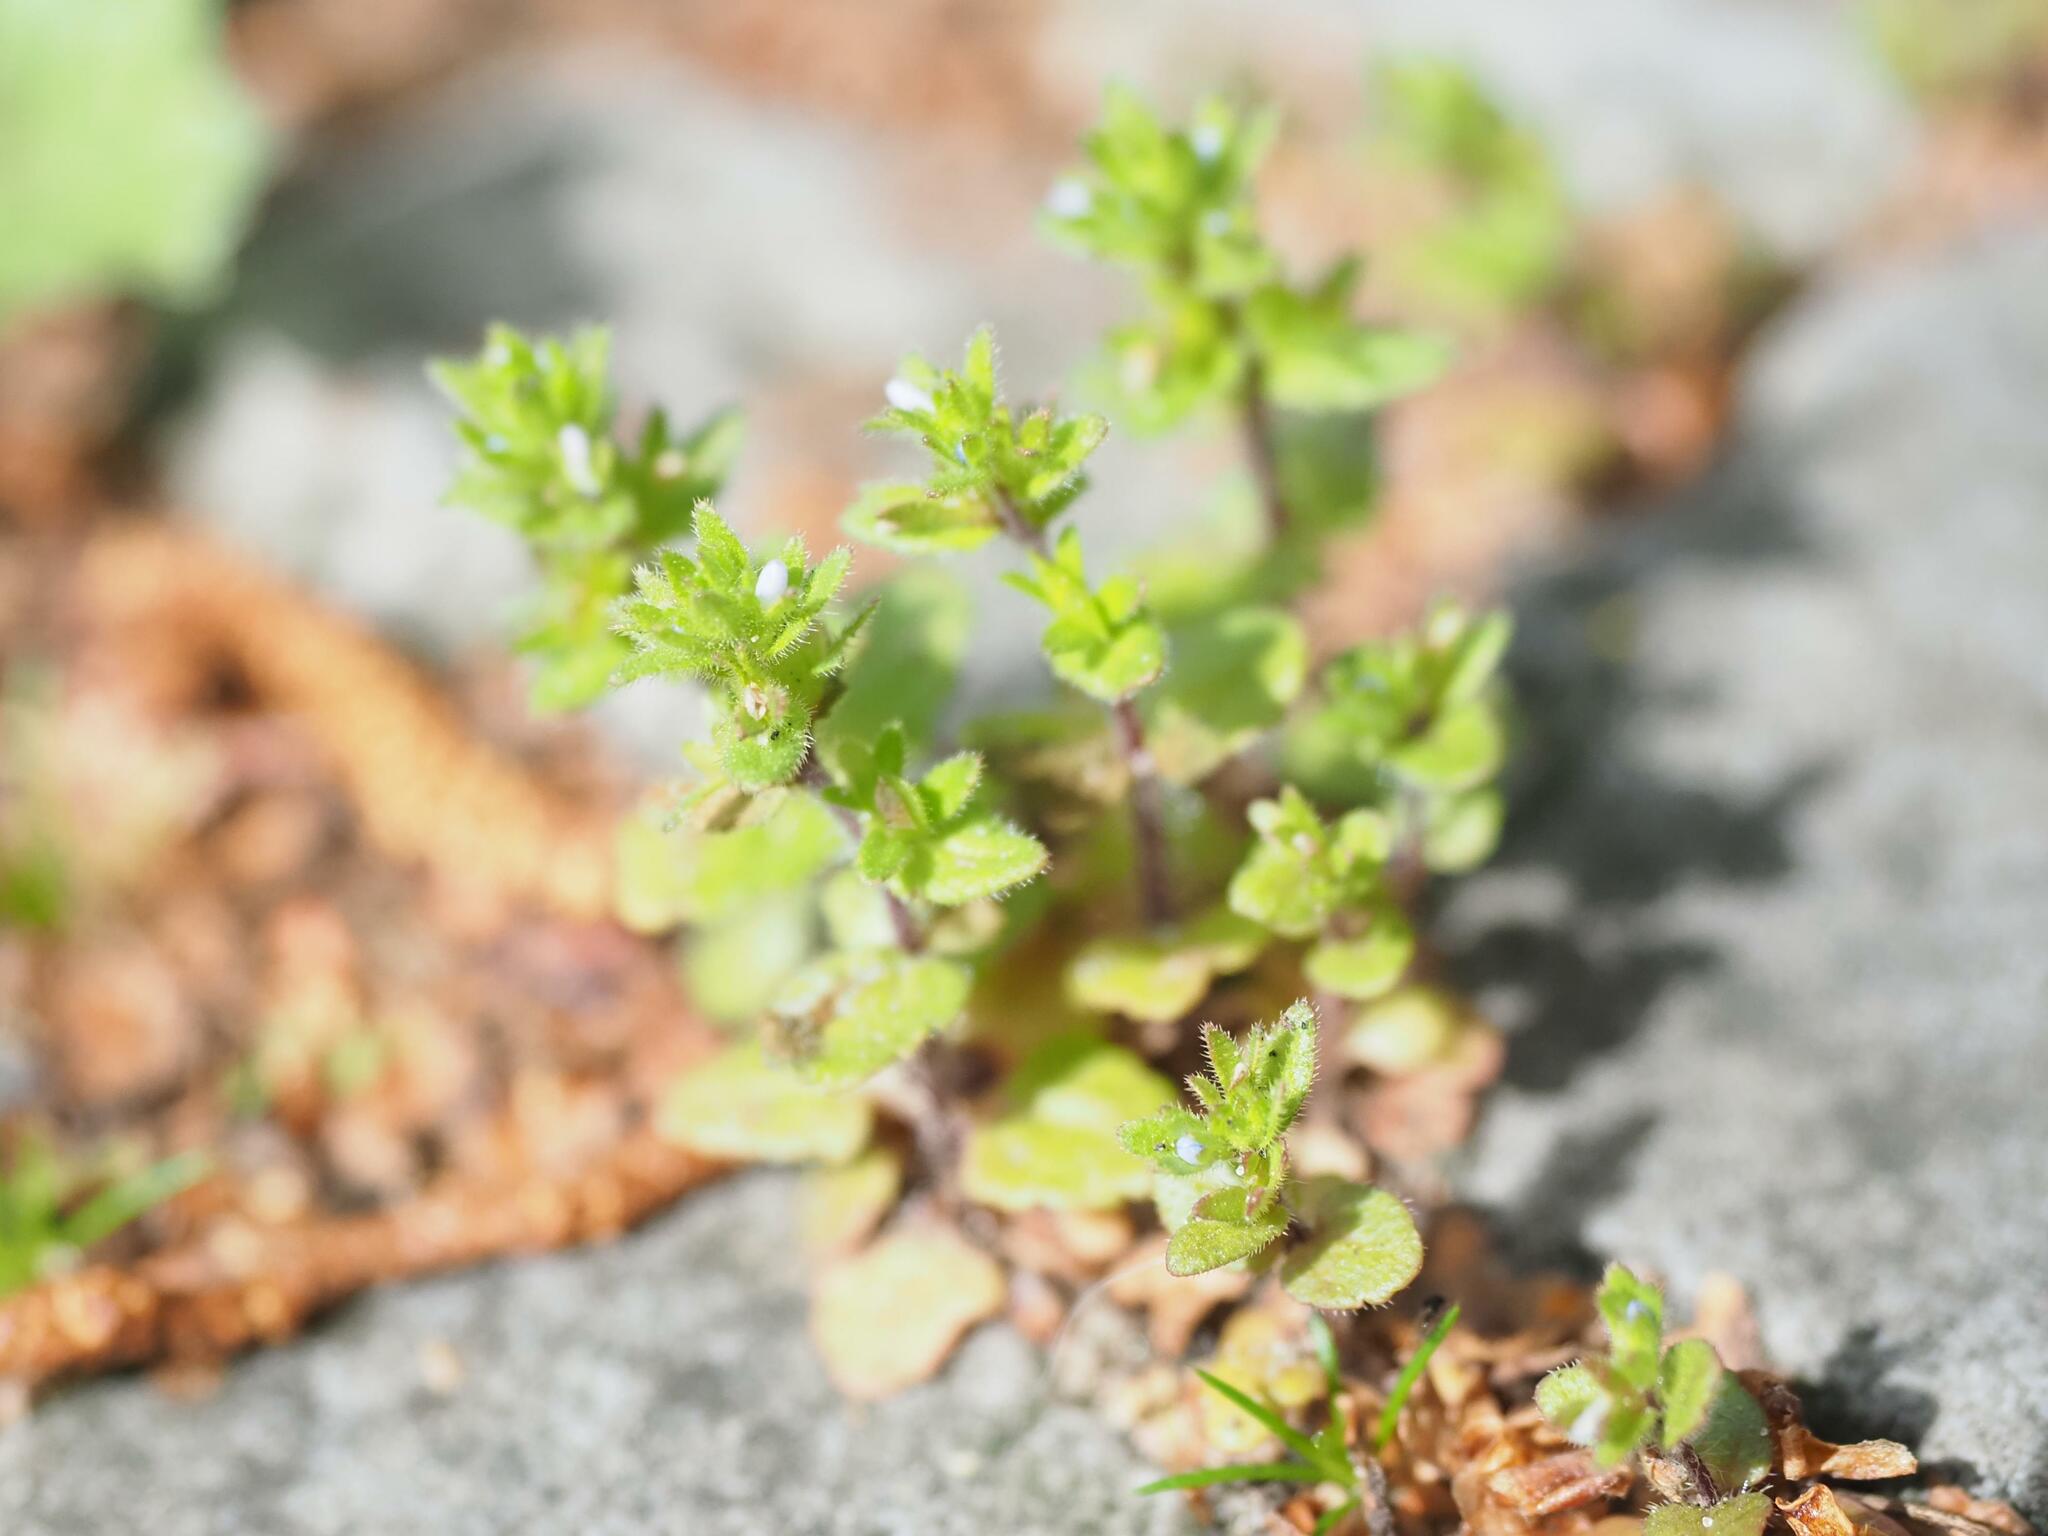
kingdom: Plantae
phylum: Tracheophyta
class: Magnoliopsida
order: Lamiales
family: Plantaginaceae
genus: Veronica
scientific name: Veronica arvensis
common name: Corn speedwell
